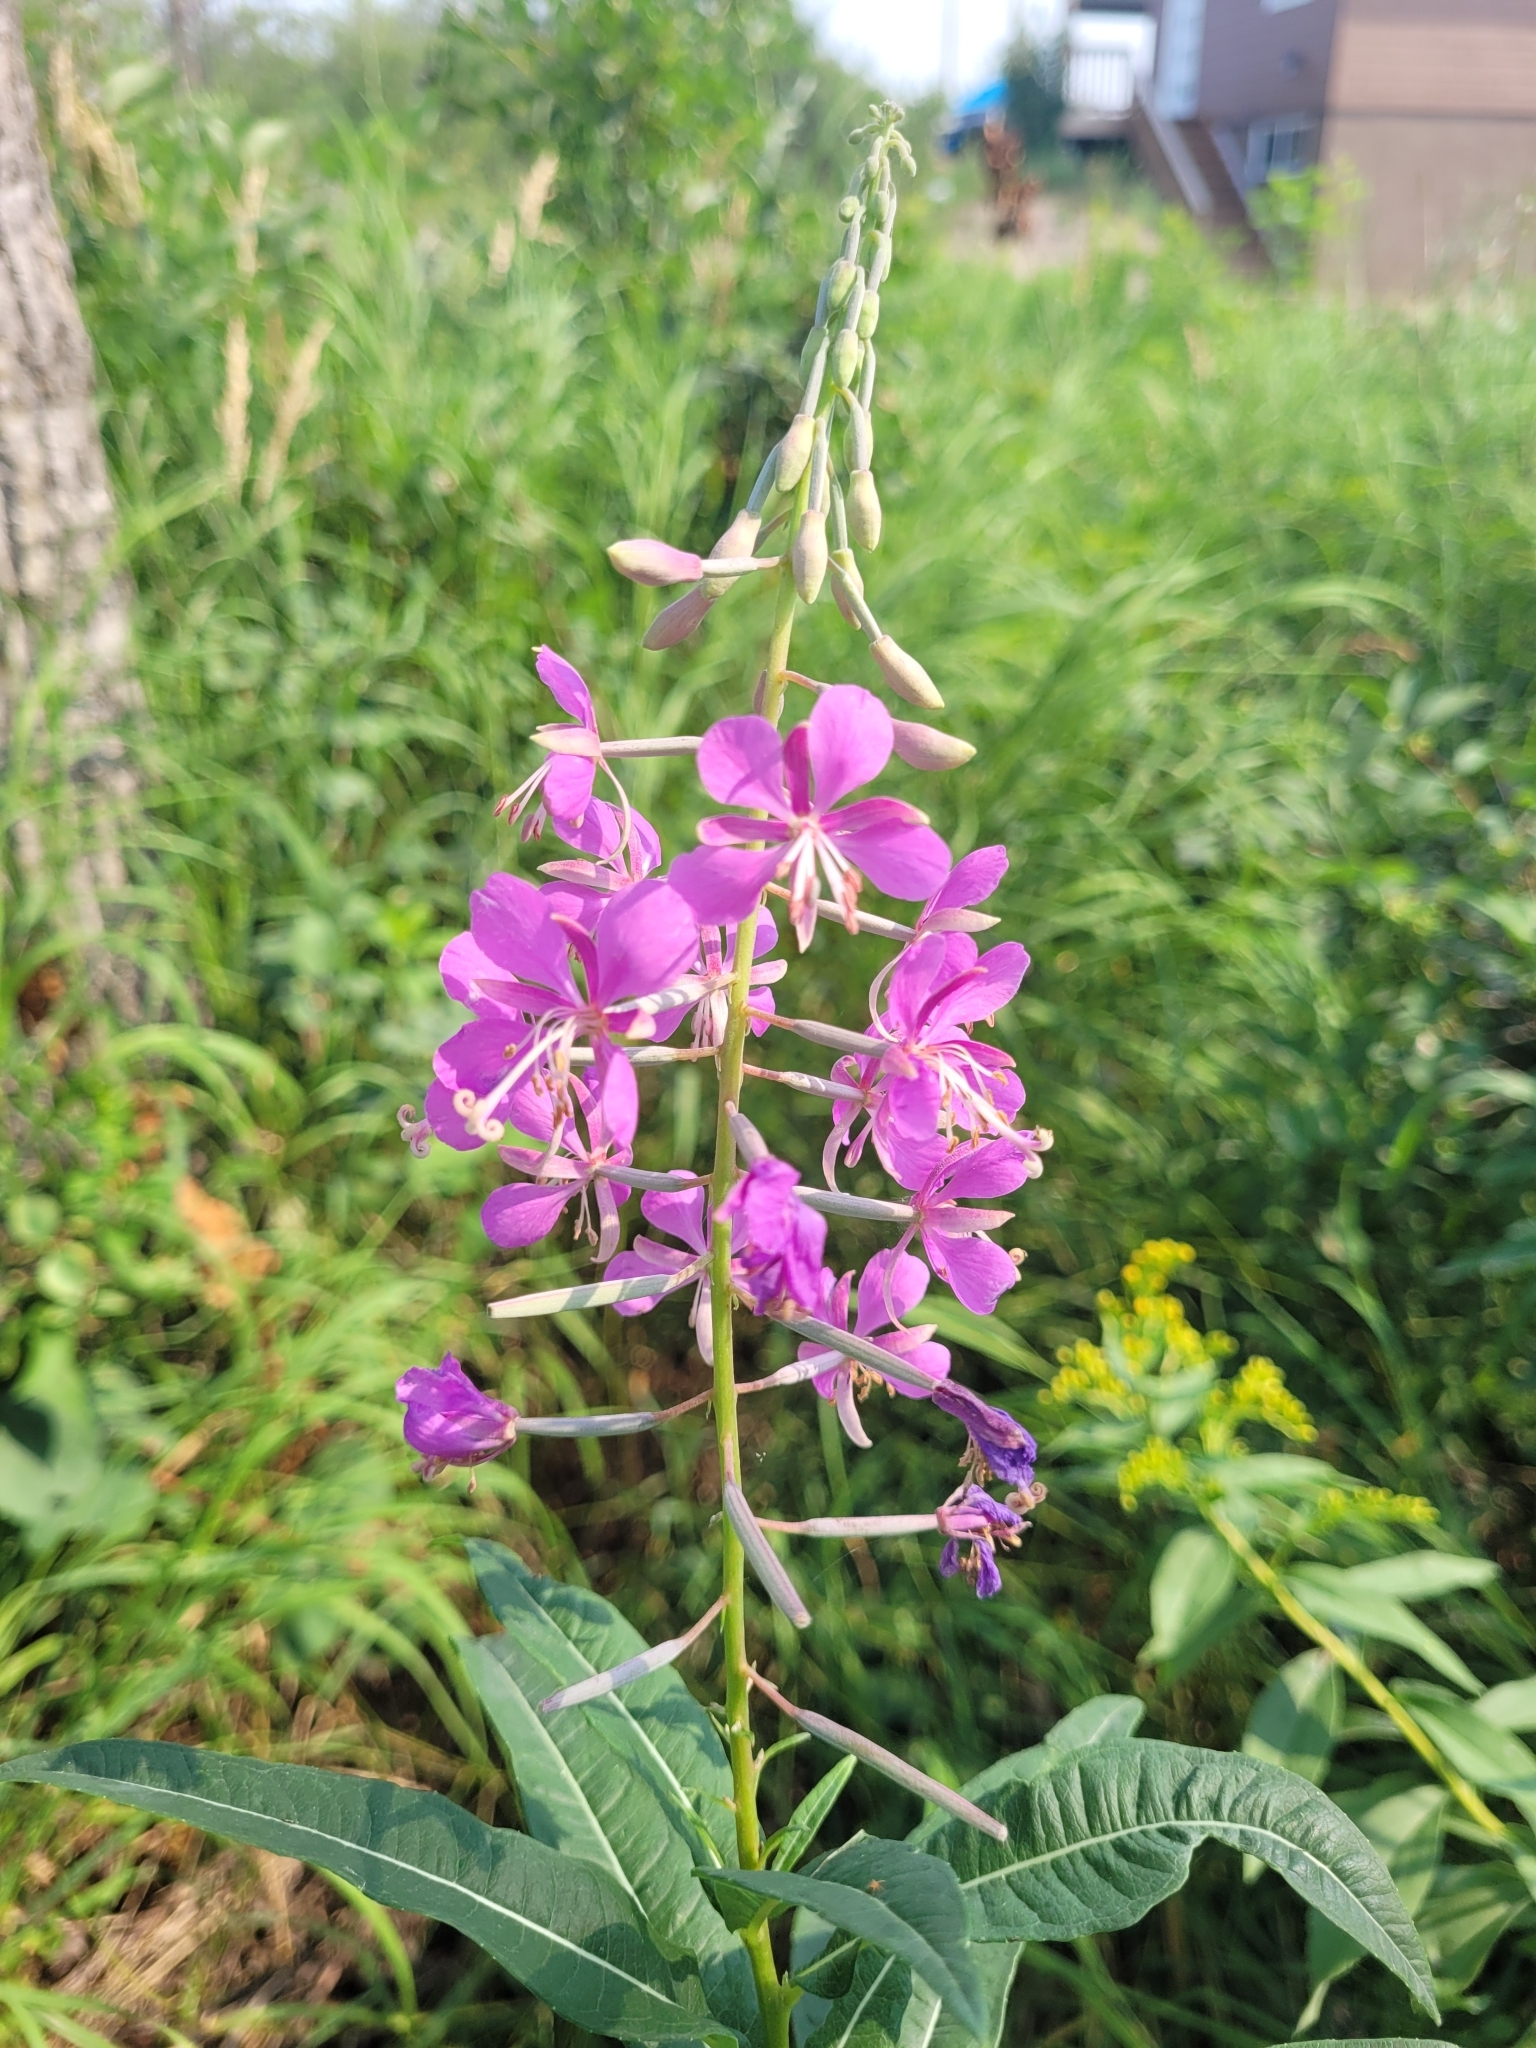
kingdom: Plantae
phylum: Tracheophyta
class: Magnoliopsida
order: Myrtales
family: Onagraceae
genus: Chamaenerion
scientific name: Chamaenerion angustifolium
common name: Fireweed
